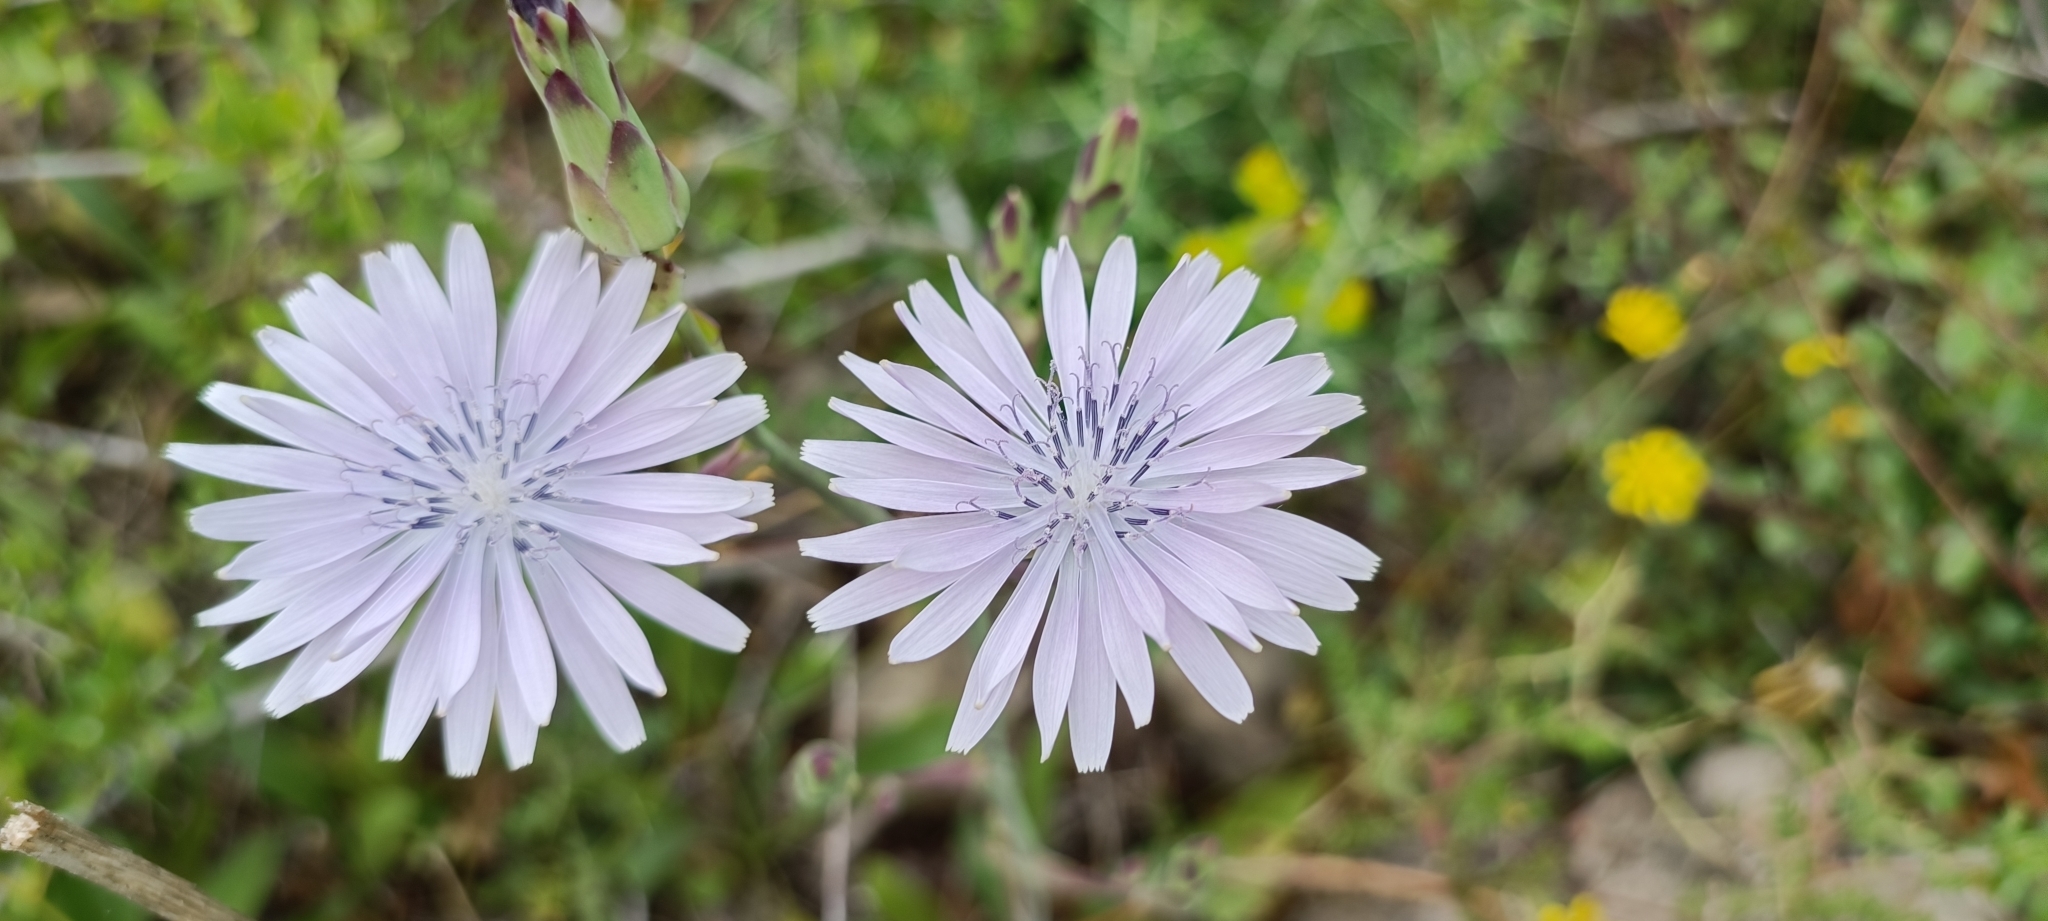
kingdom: Plantae
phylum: Tracheophyta
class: Magnoliopsida
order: Asterales
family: Asteraceae
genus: Lactuca
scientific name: Lactuca tuberosa
